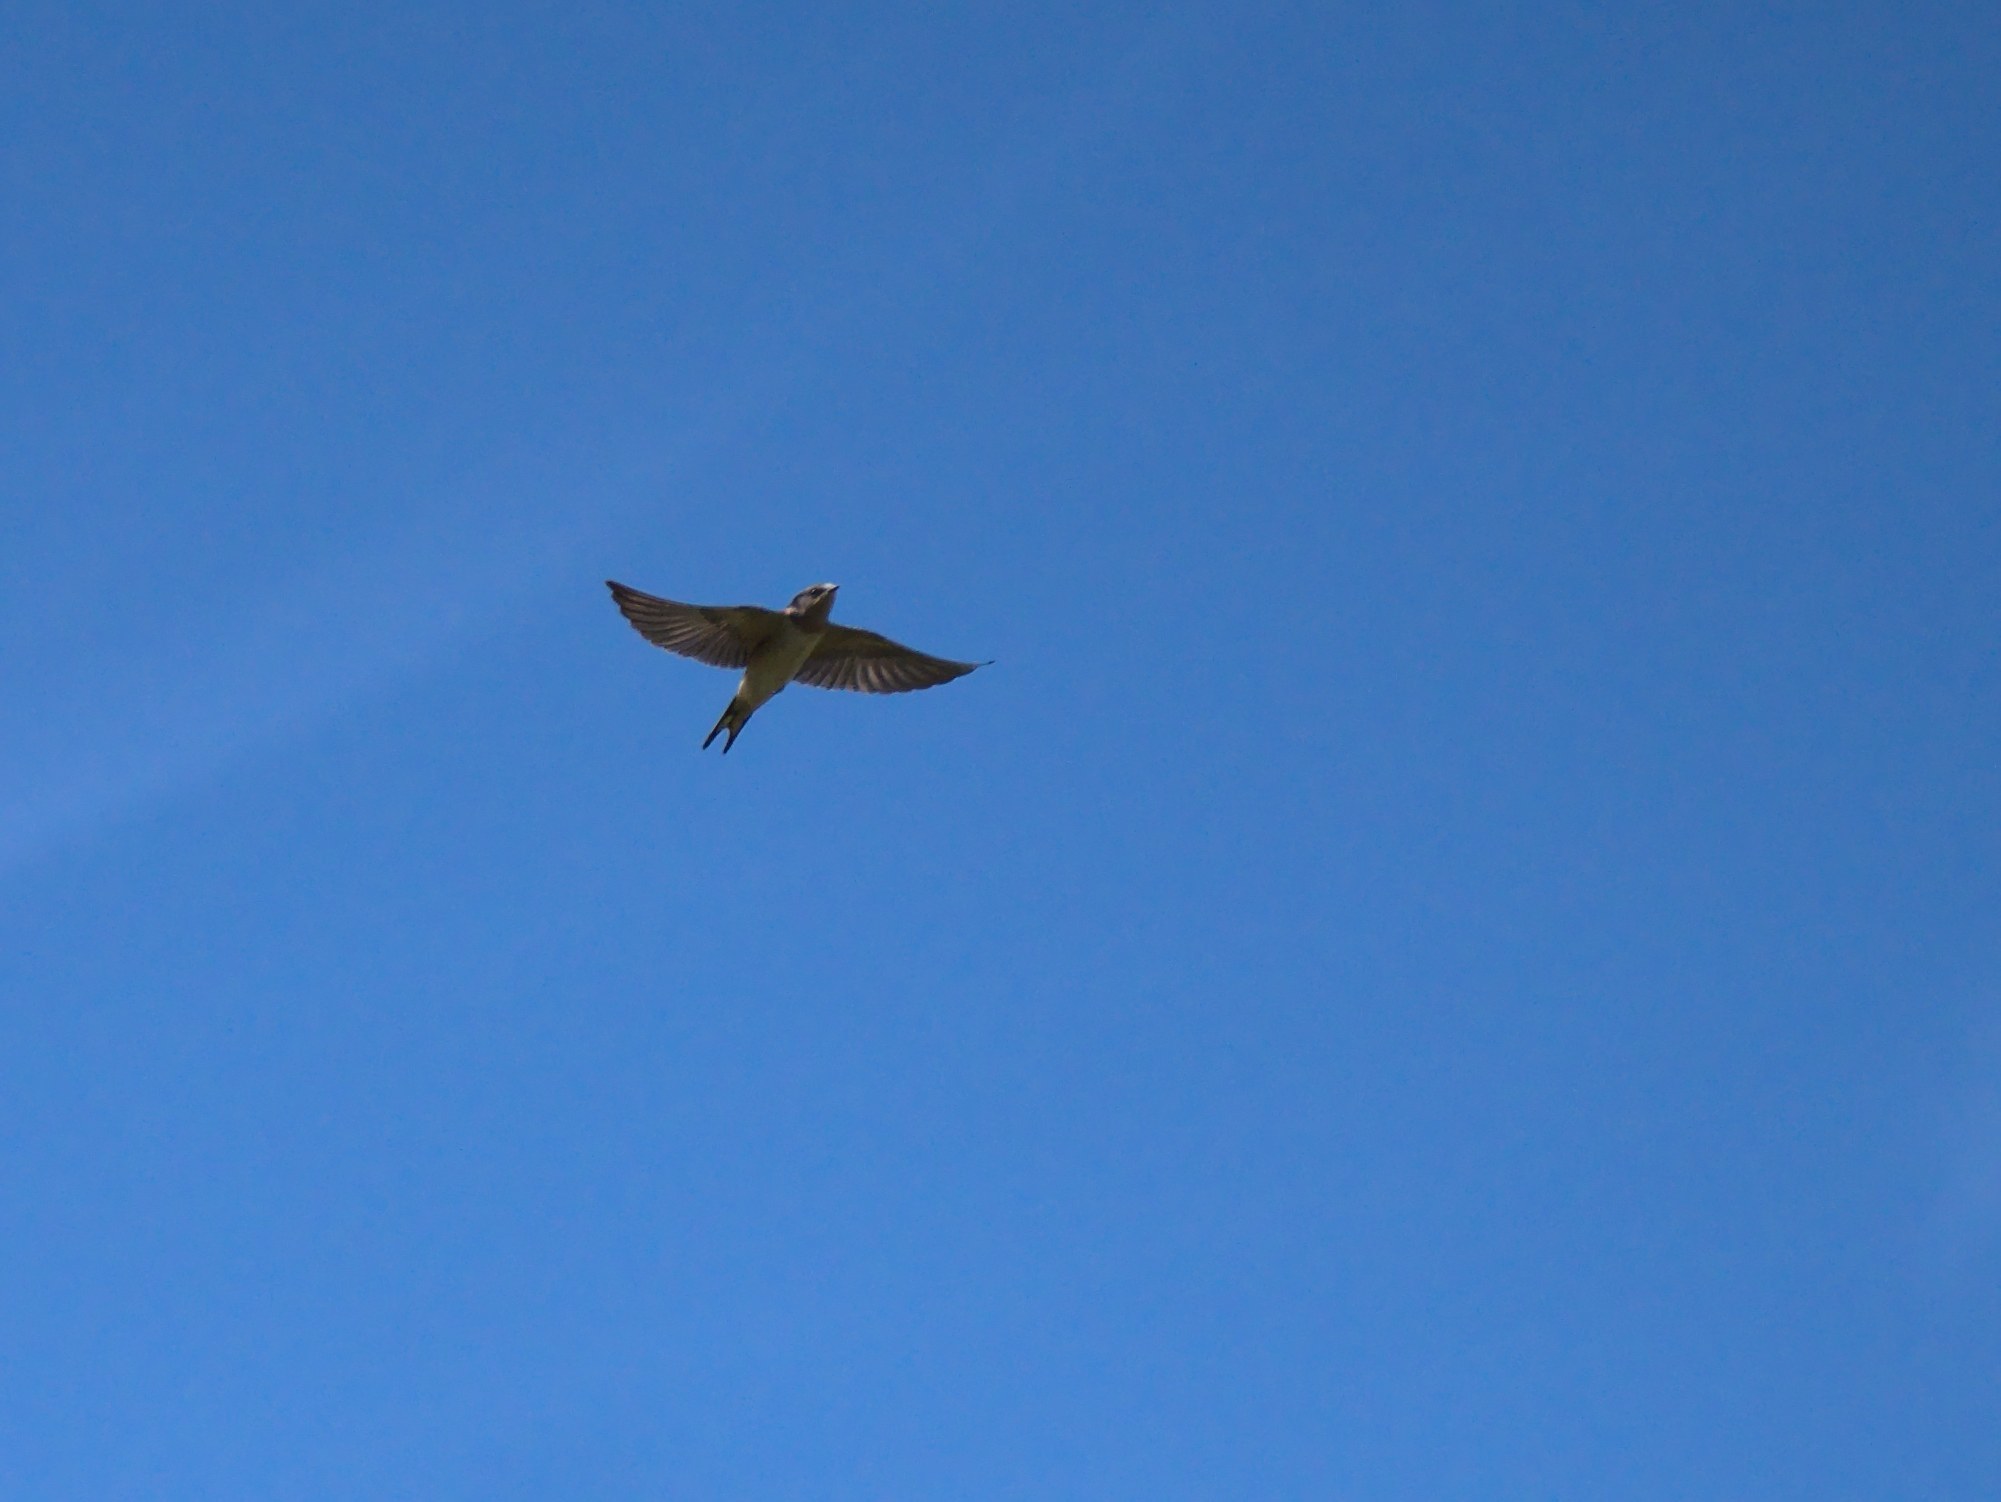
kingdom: Animalia
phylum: Chordata
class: Aves
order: Passeriformes
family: Hirundinidae
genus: Hirundo
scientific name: Hirundo rustica
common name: Barn swallow
